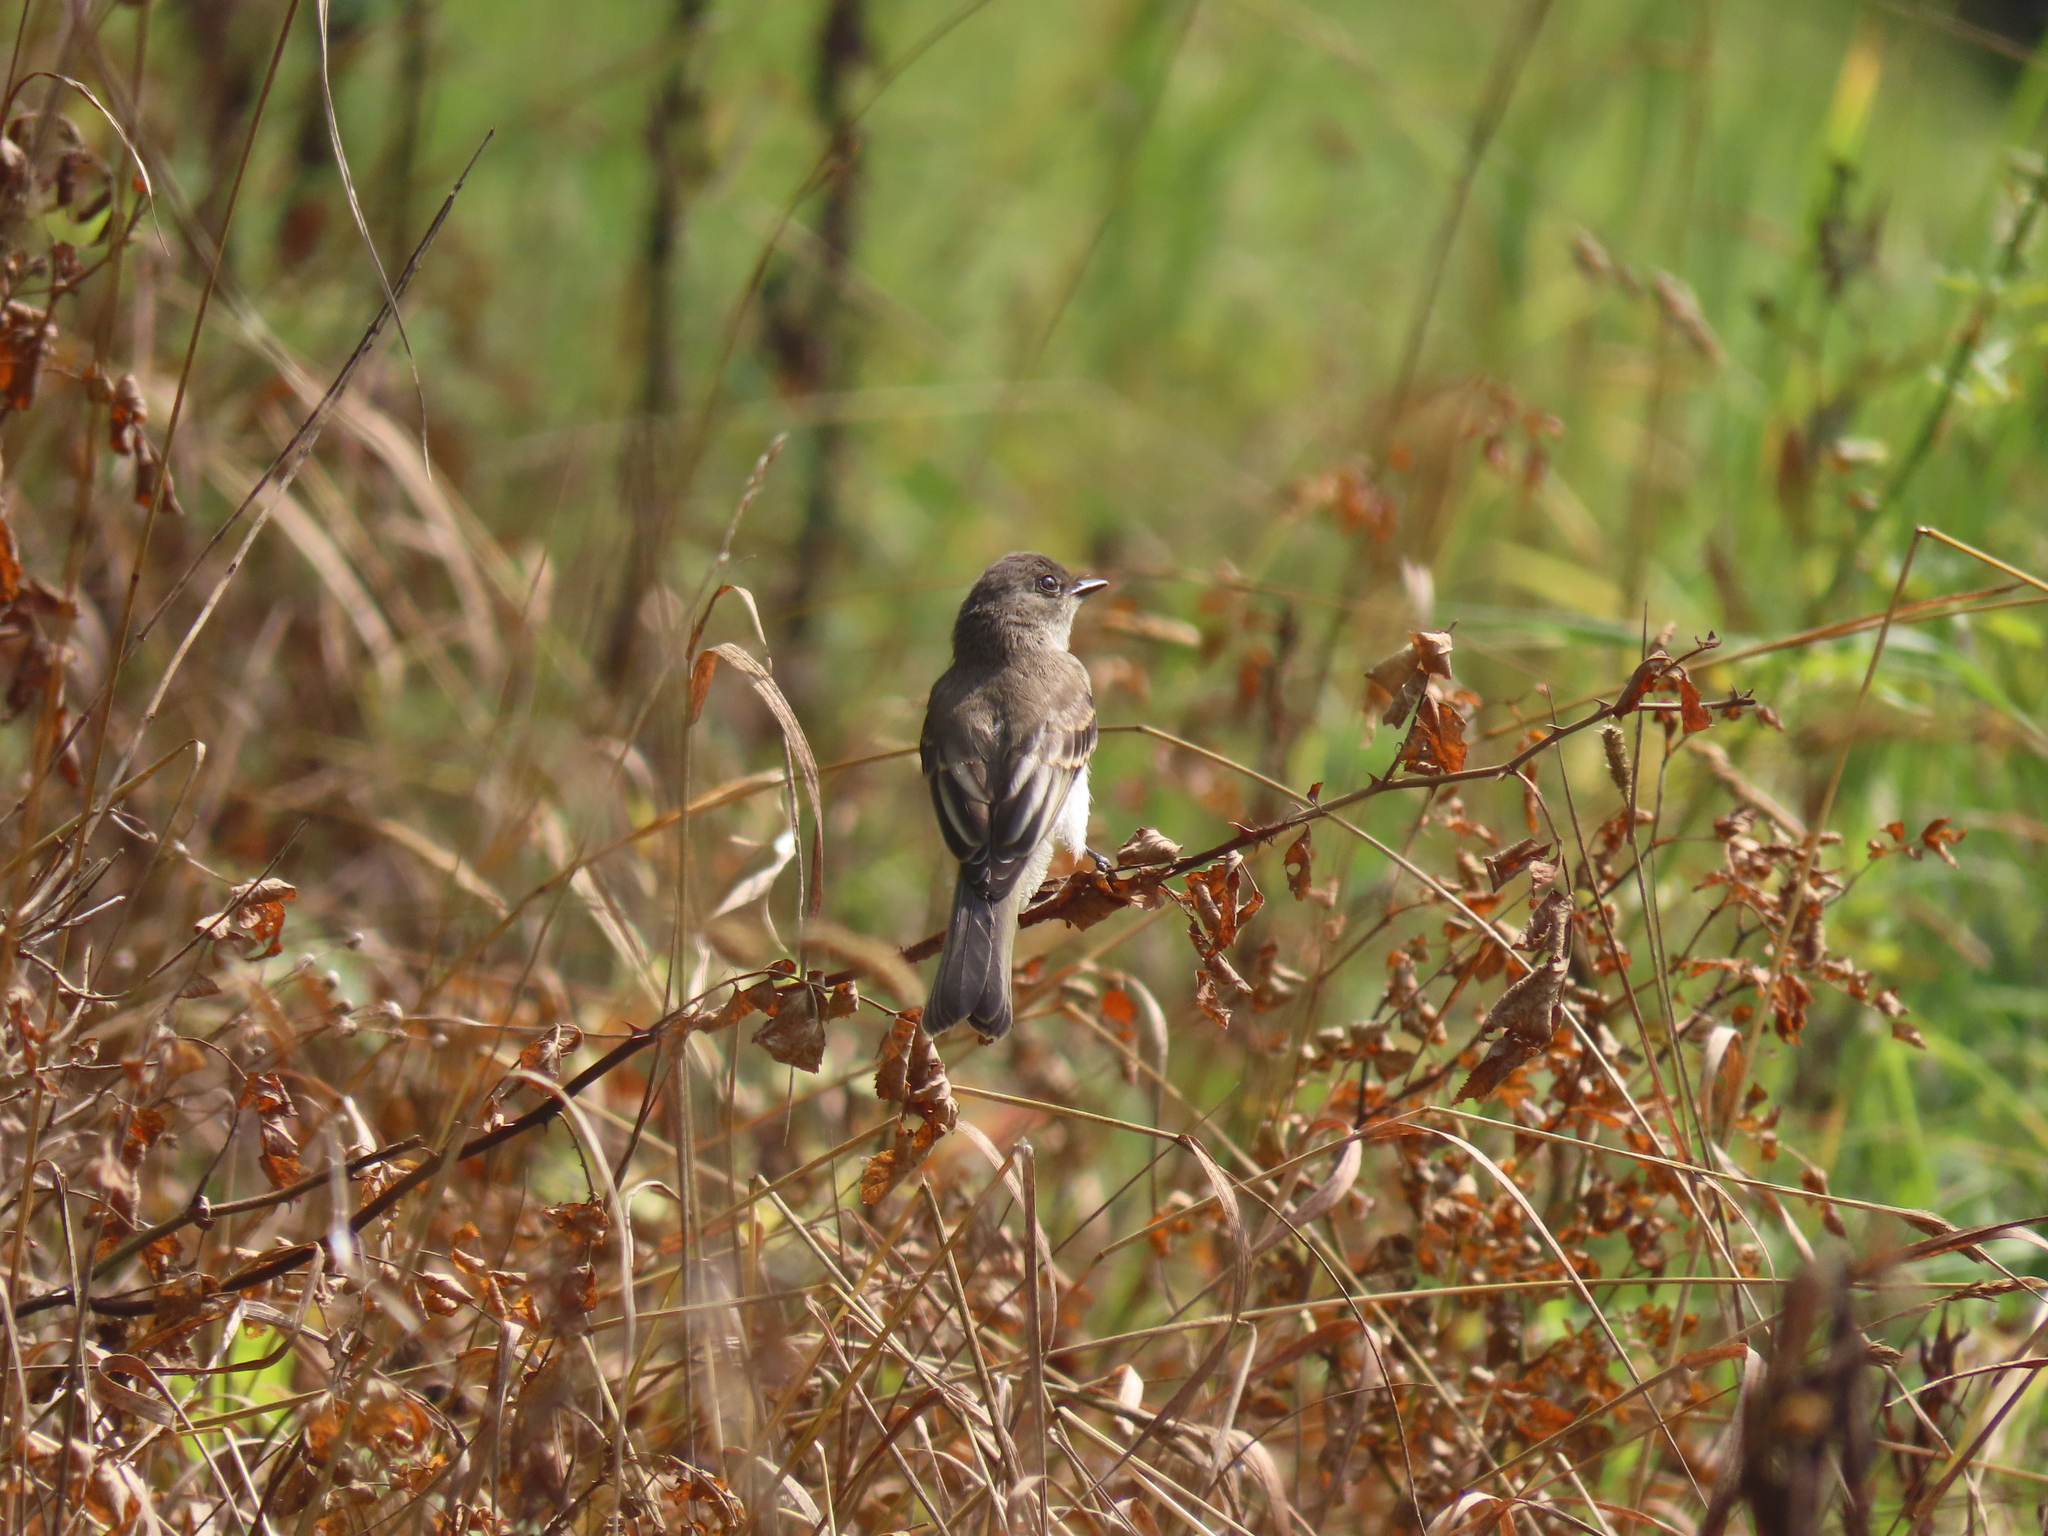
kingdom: Animalia
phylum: Chordata
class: Aves
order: Passeriformes
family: Tyrannidae
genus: Sayornis
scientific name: Sayornis phoebe
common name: Eastern phoebe
